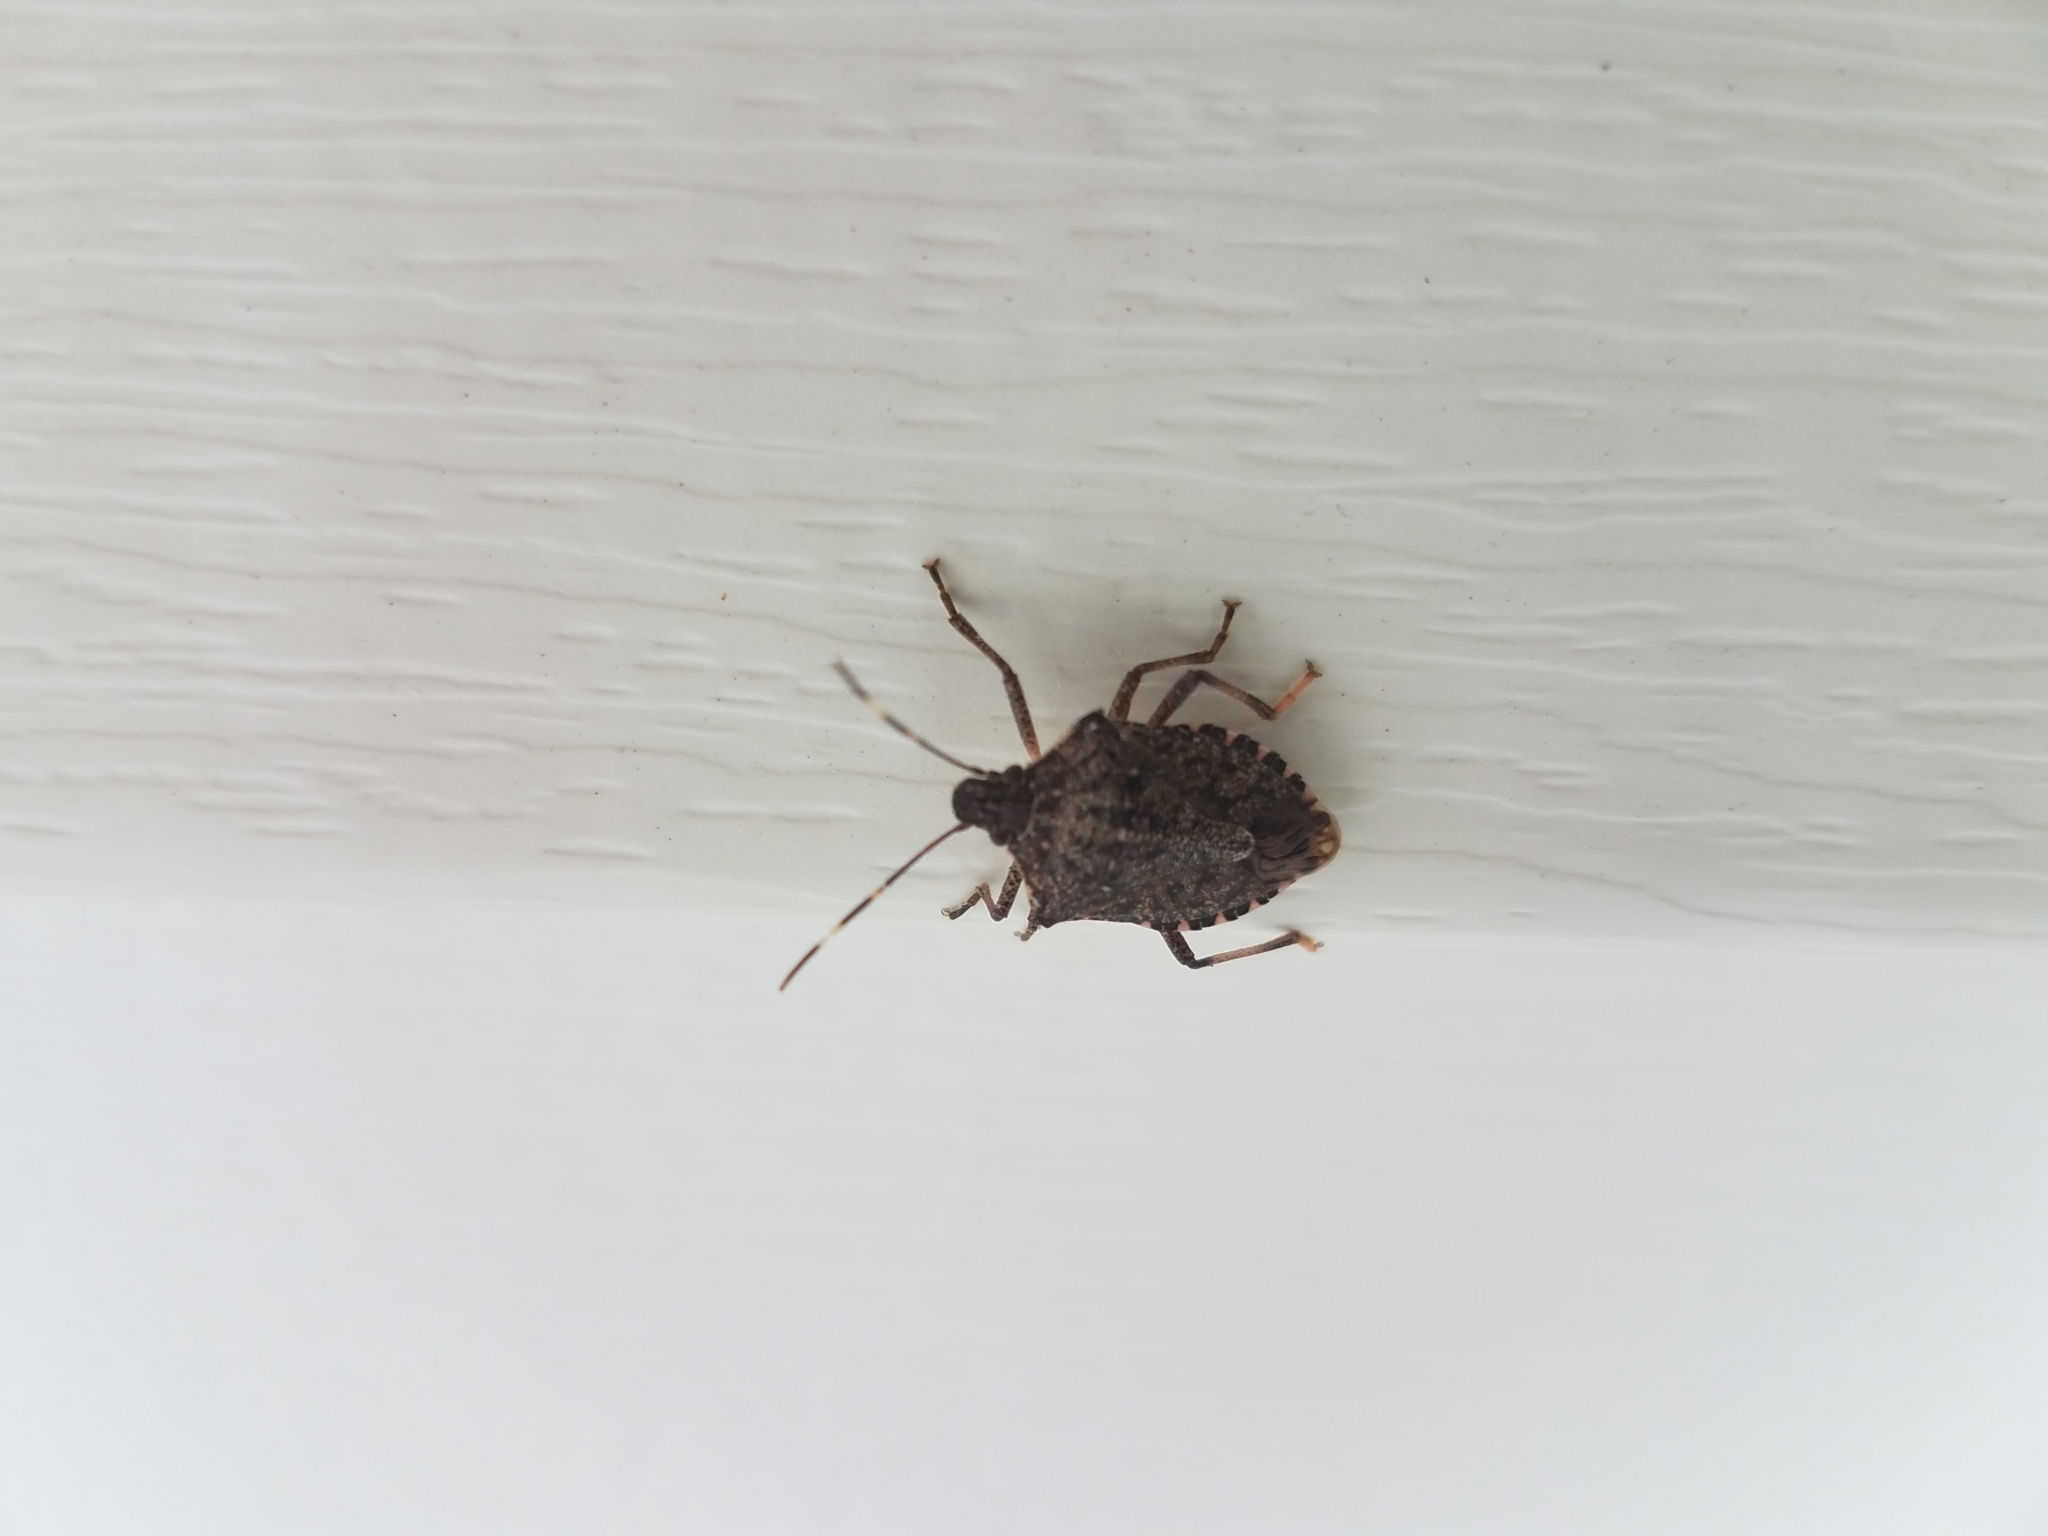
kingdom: Animalia
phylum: Arthropoda
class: Insecta
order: Hemiptera
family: Pentatomidae
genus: Halyomorpha
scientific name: Halyomorpha halys
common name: Brown marmorated stink bug
